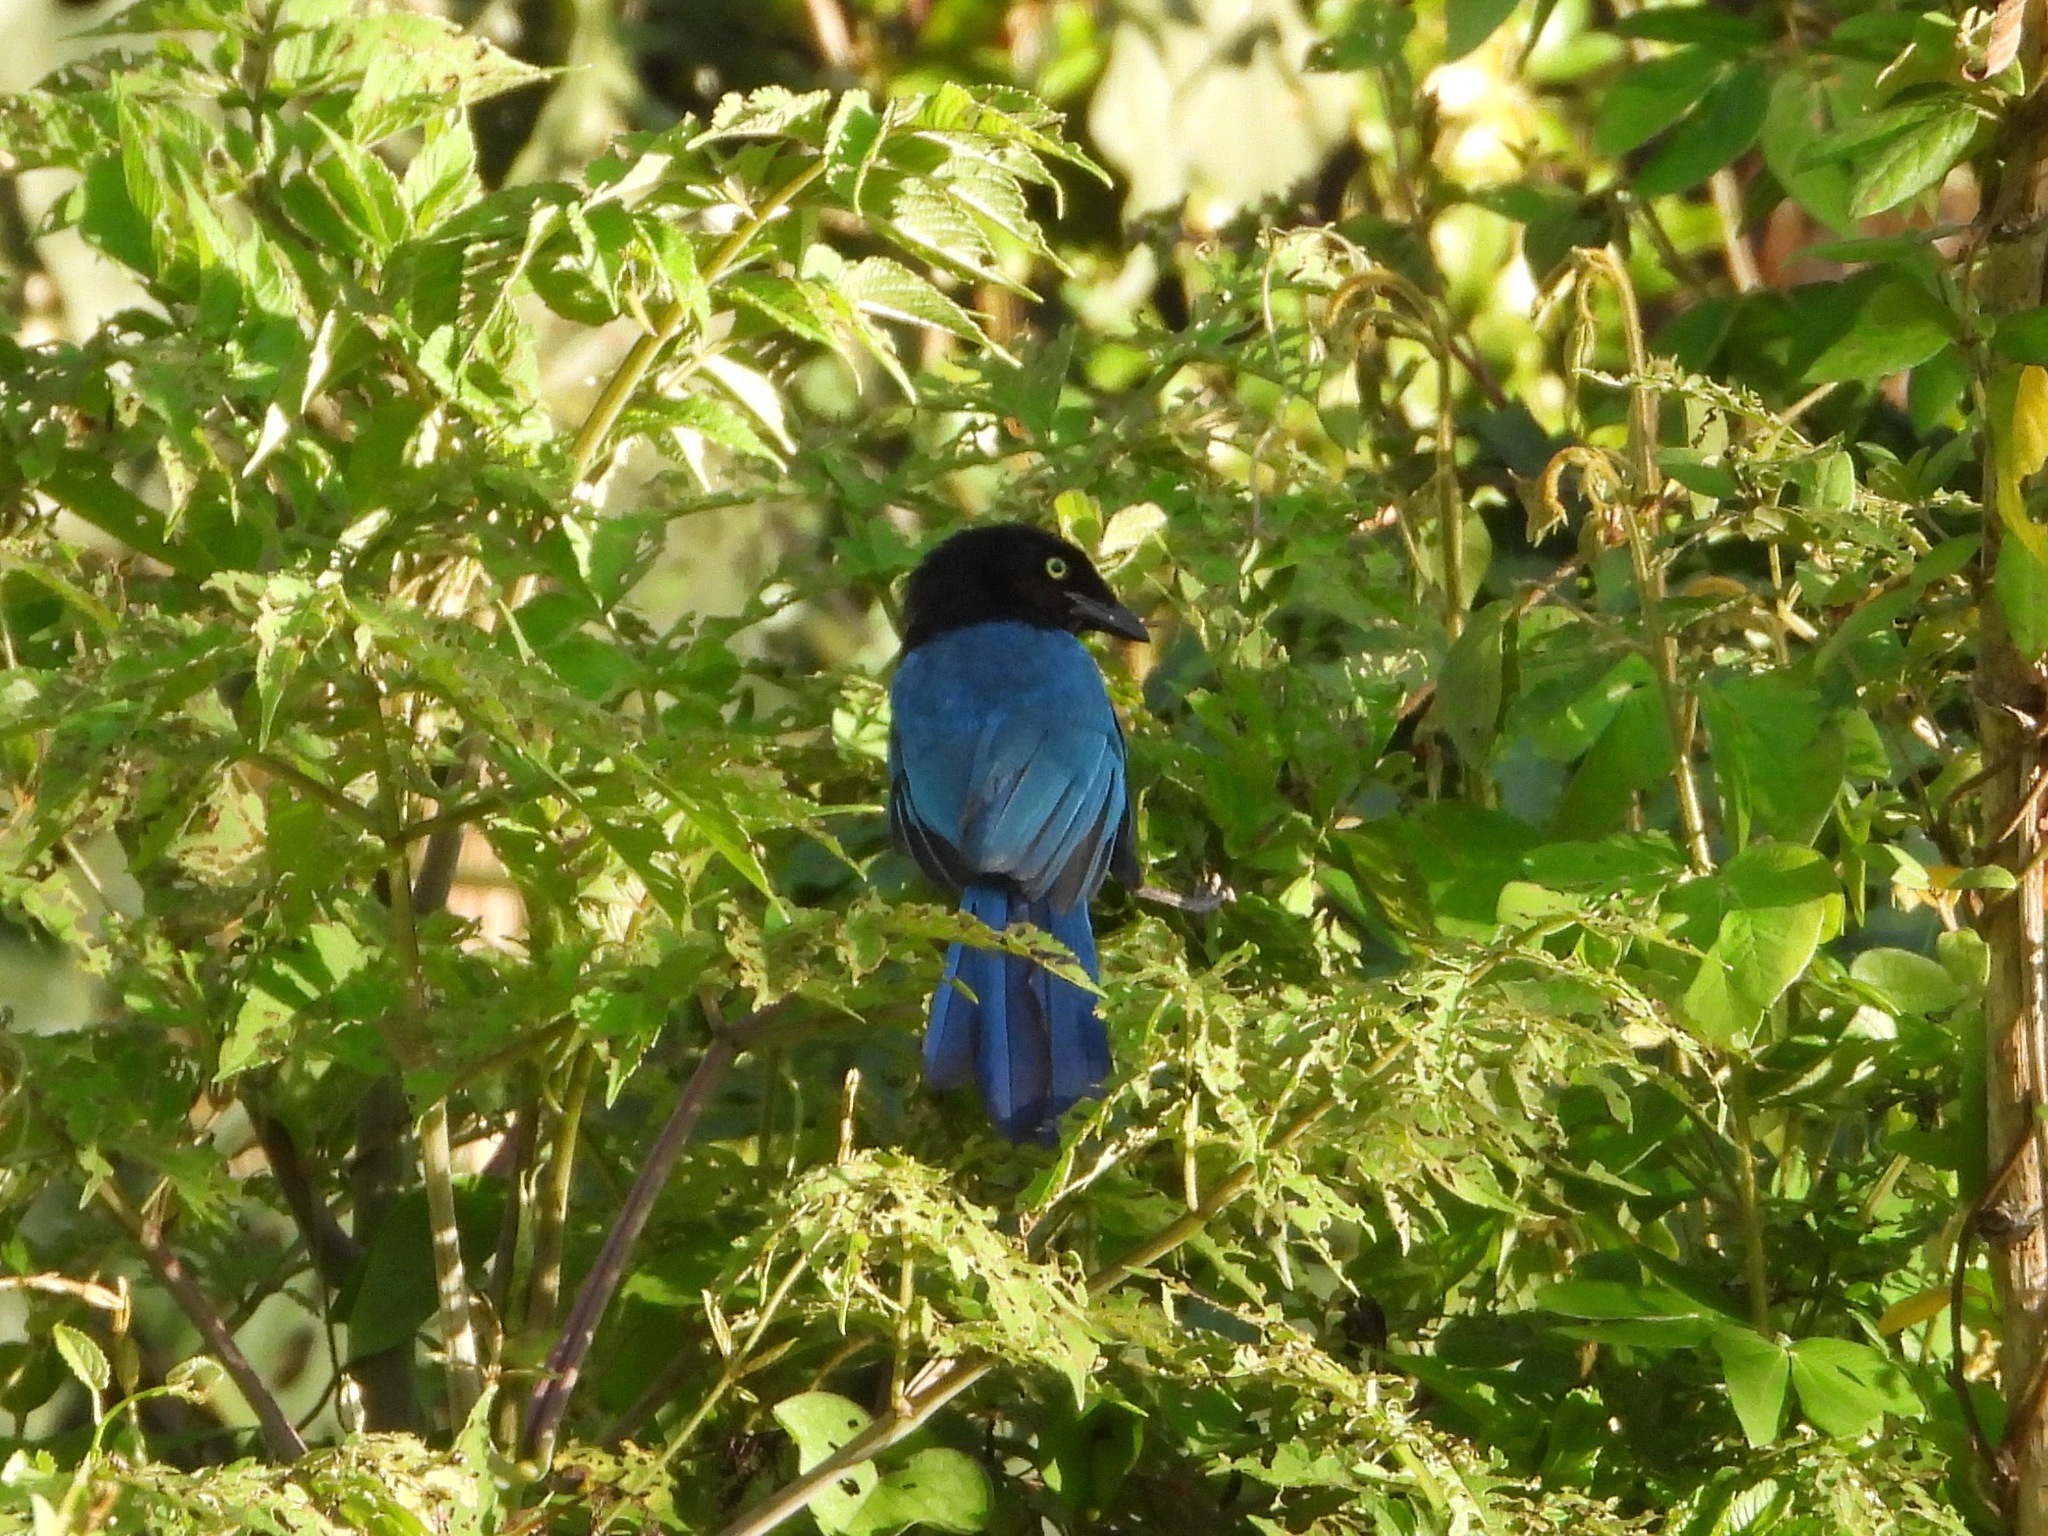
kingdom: Animalia
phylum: Chordata
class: Aves
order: Passeriformes
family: Corvidae
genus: Cyanocorax
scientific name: Cyanocorax melanocyaneus
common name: Bushy-crested jay
